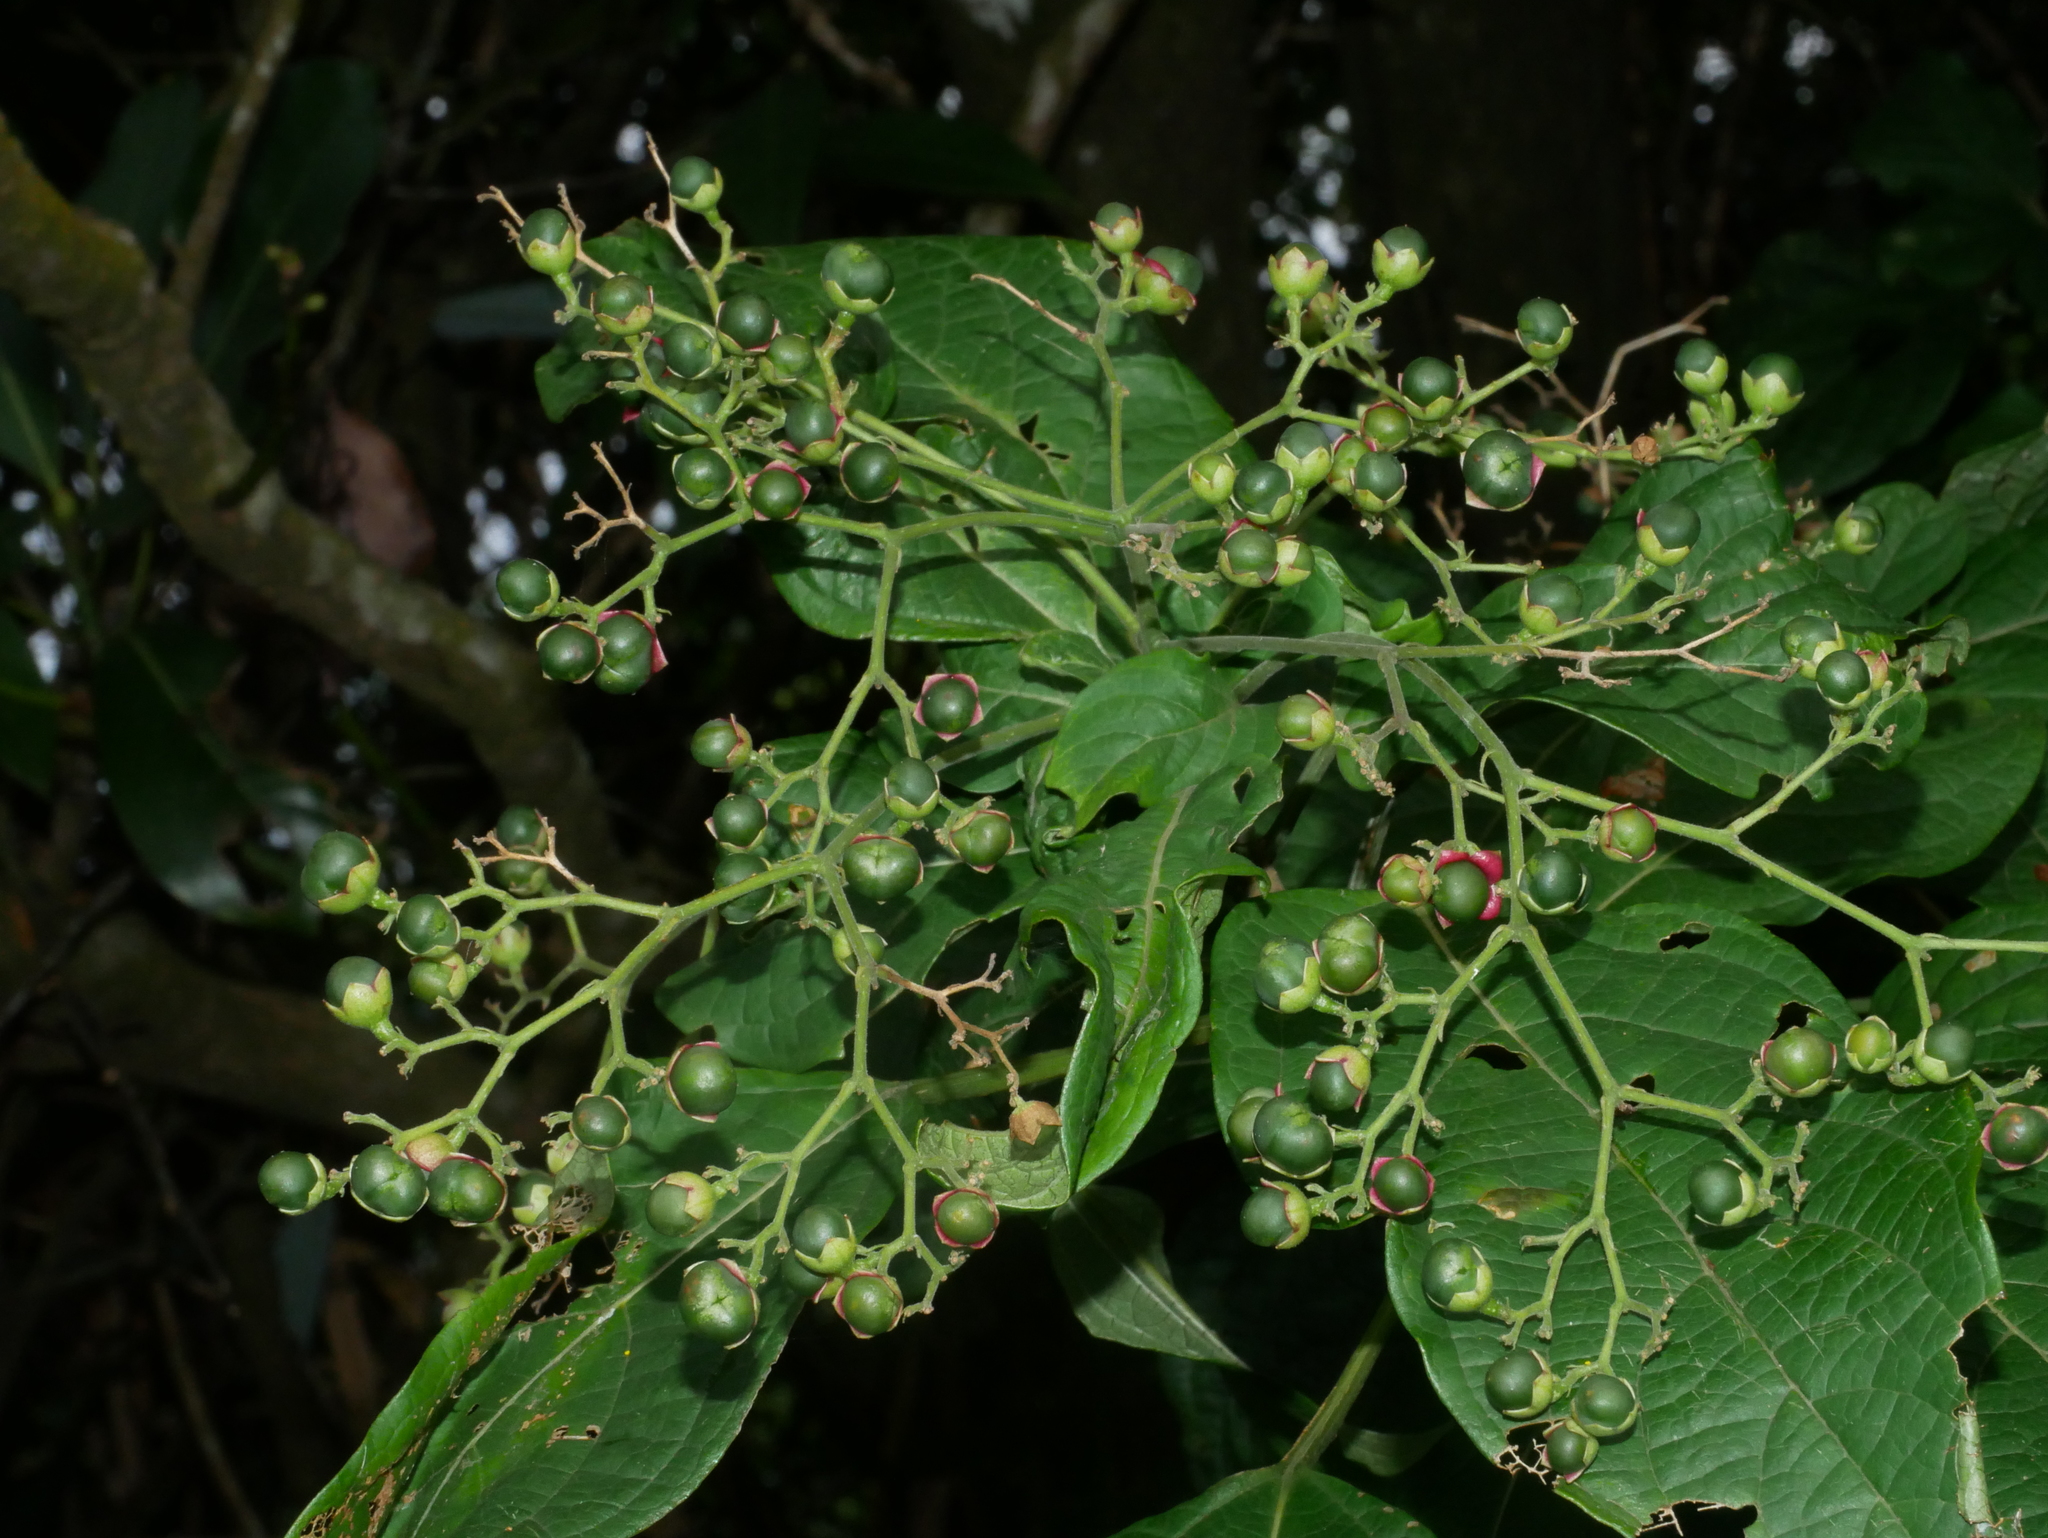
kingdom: Plantae
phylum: Tracheophyta
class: Magnoliopsida
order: Lamiales
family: Lamiaceae
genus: Clerodendrum
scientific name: Clerodendrum cyrtophyllum
